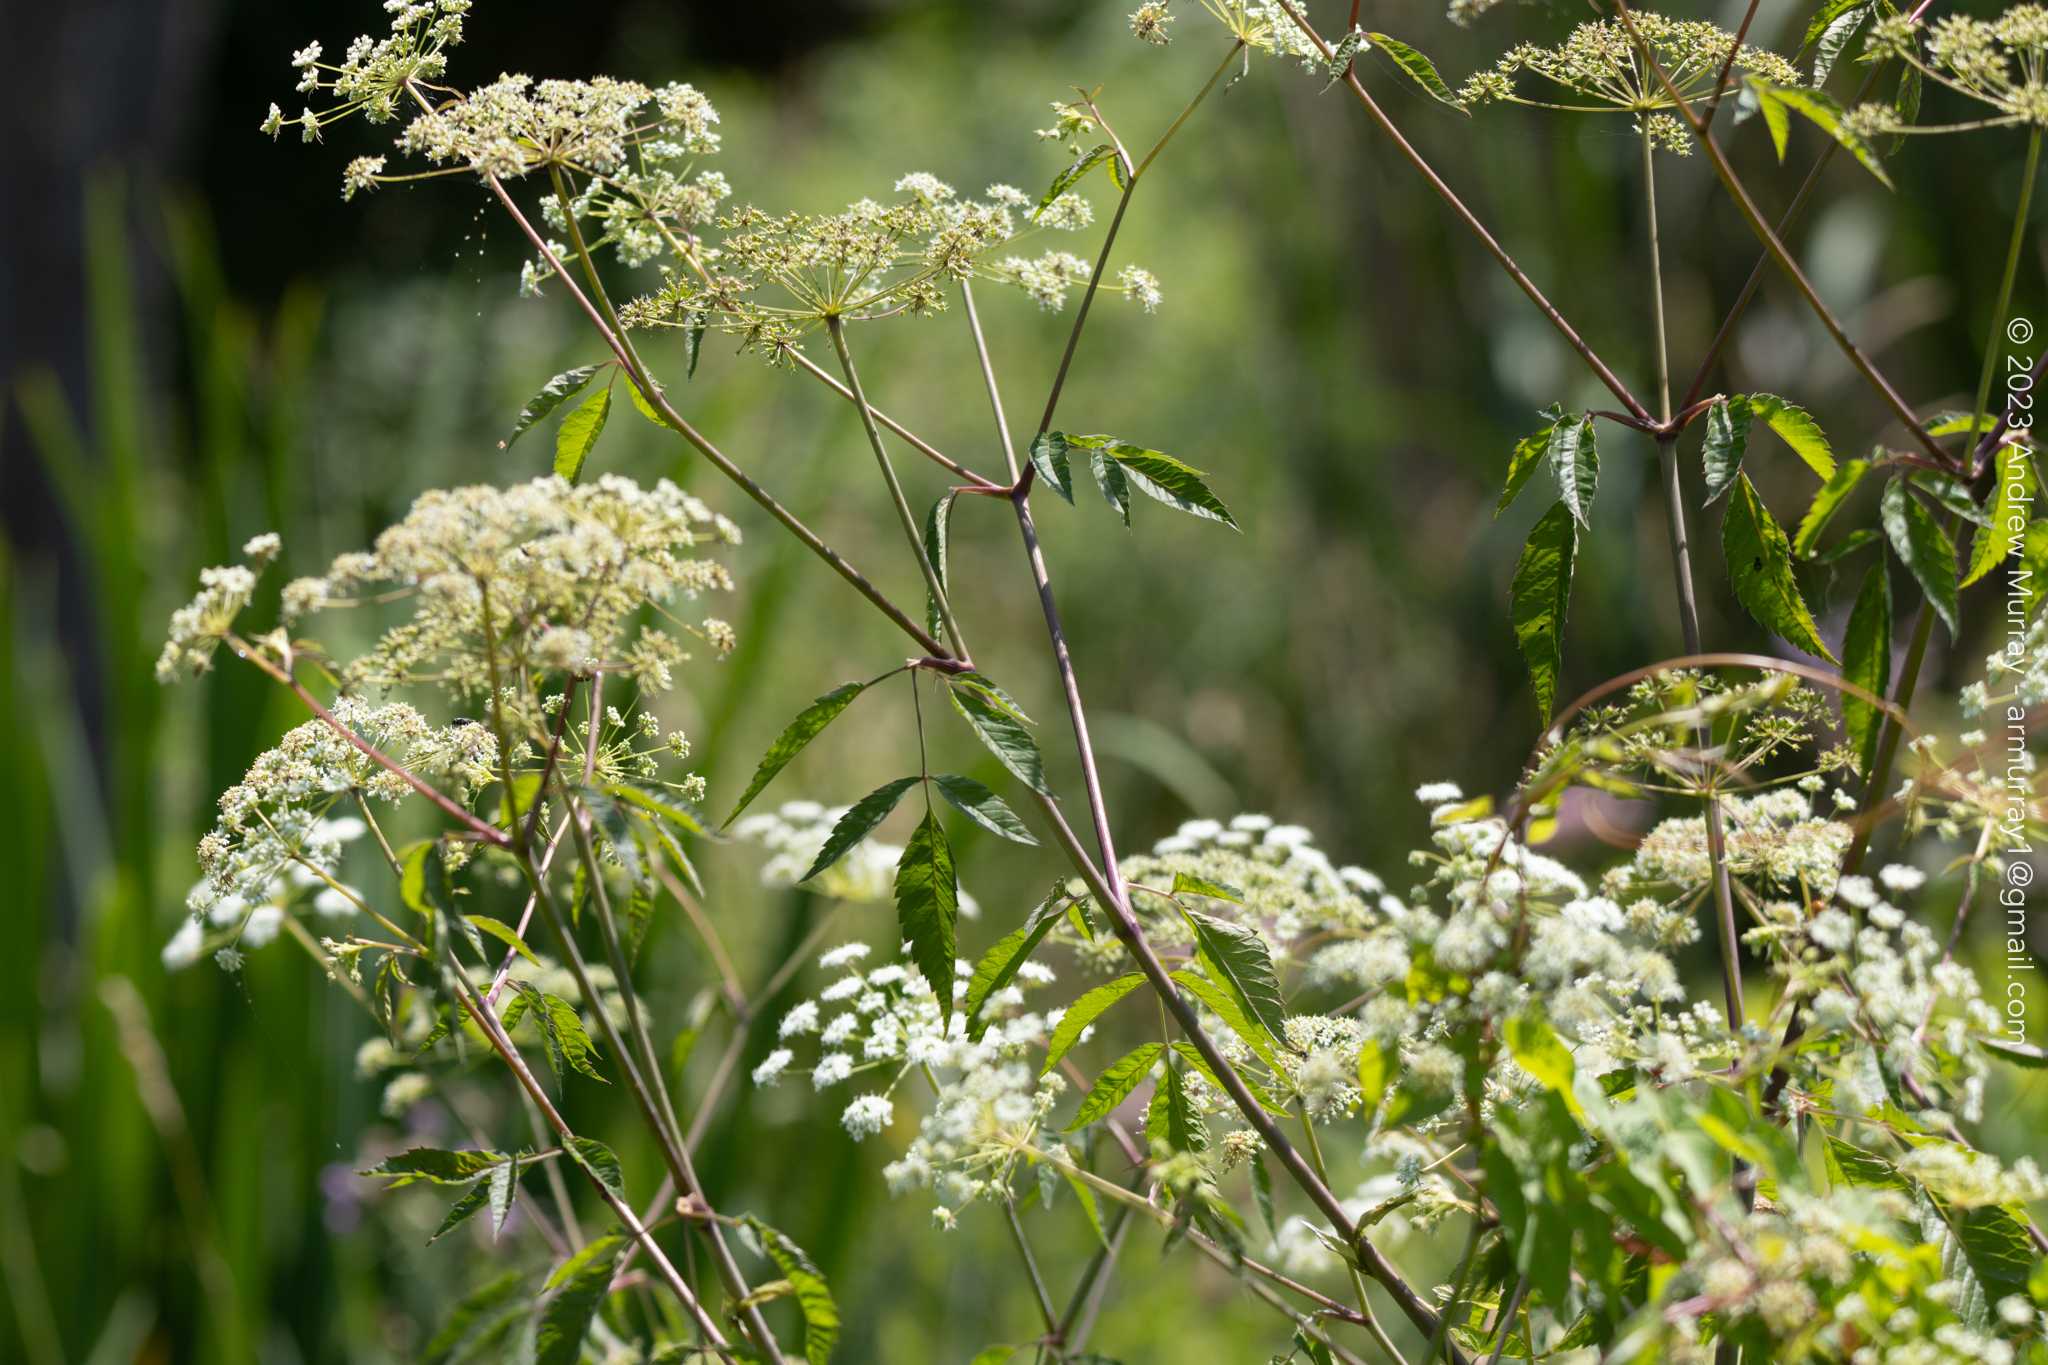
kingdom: Plantae
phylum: Tracheophyta
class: Magnoliopsida
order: Apiales
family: Apiaceae
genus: Cicuta
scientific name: Cicuta maculata
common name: Spotted cowbane
